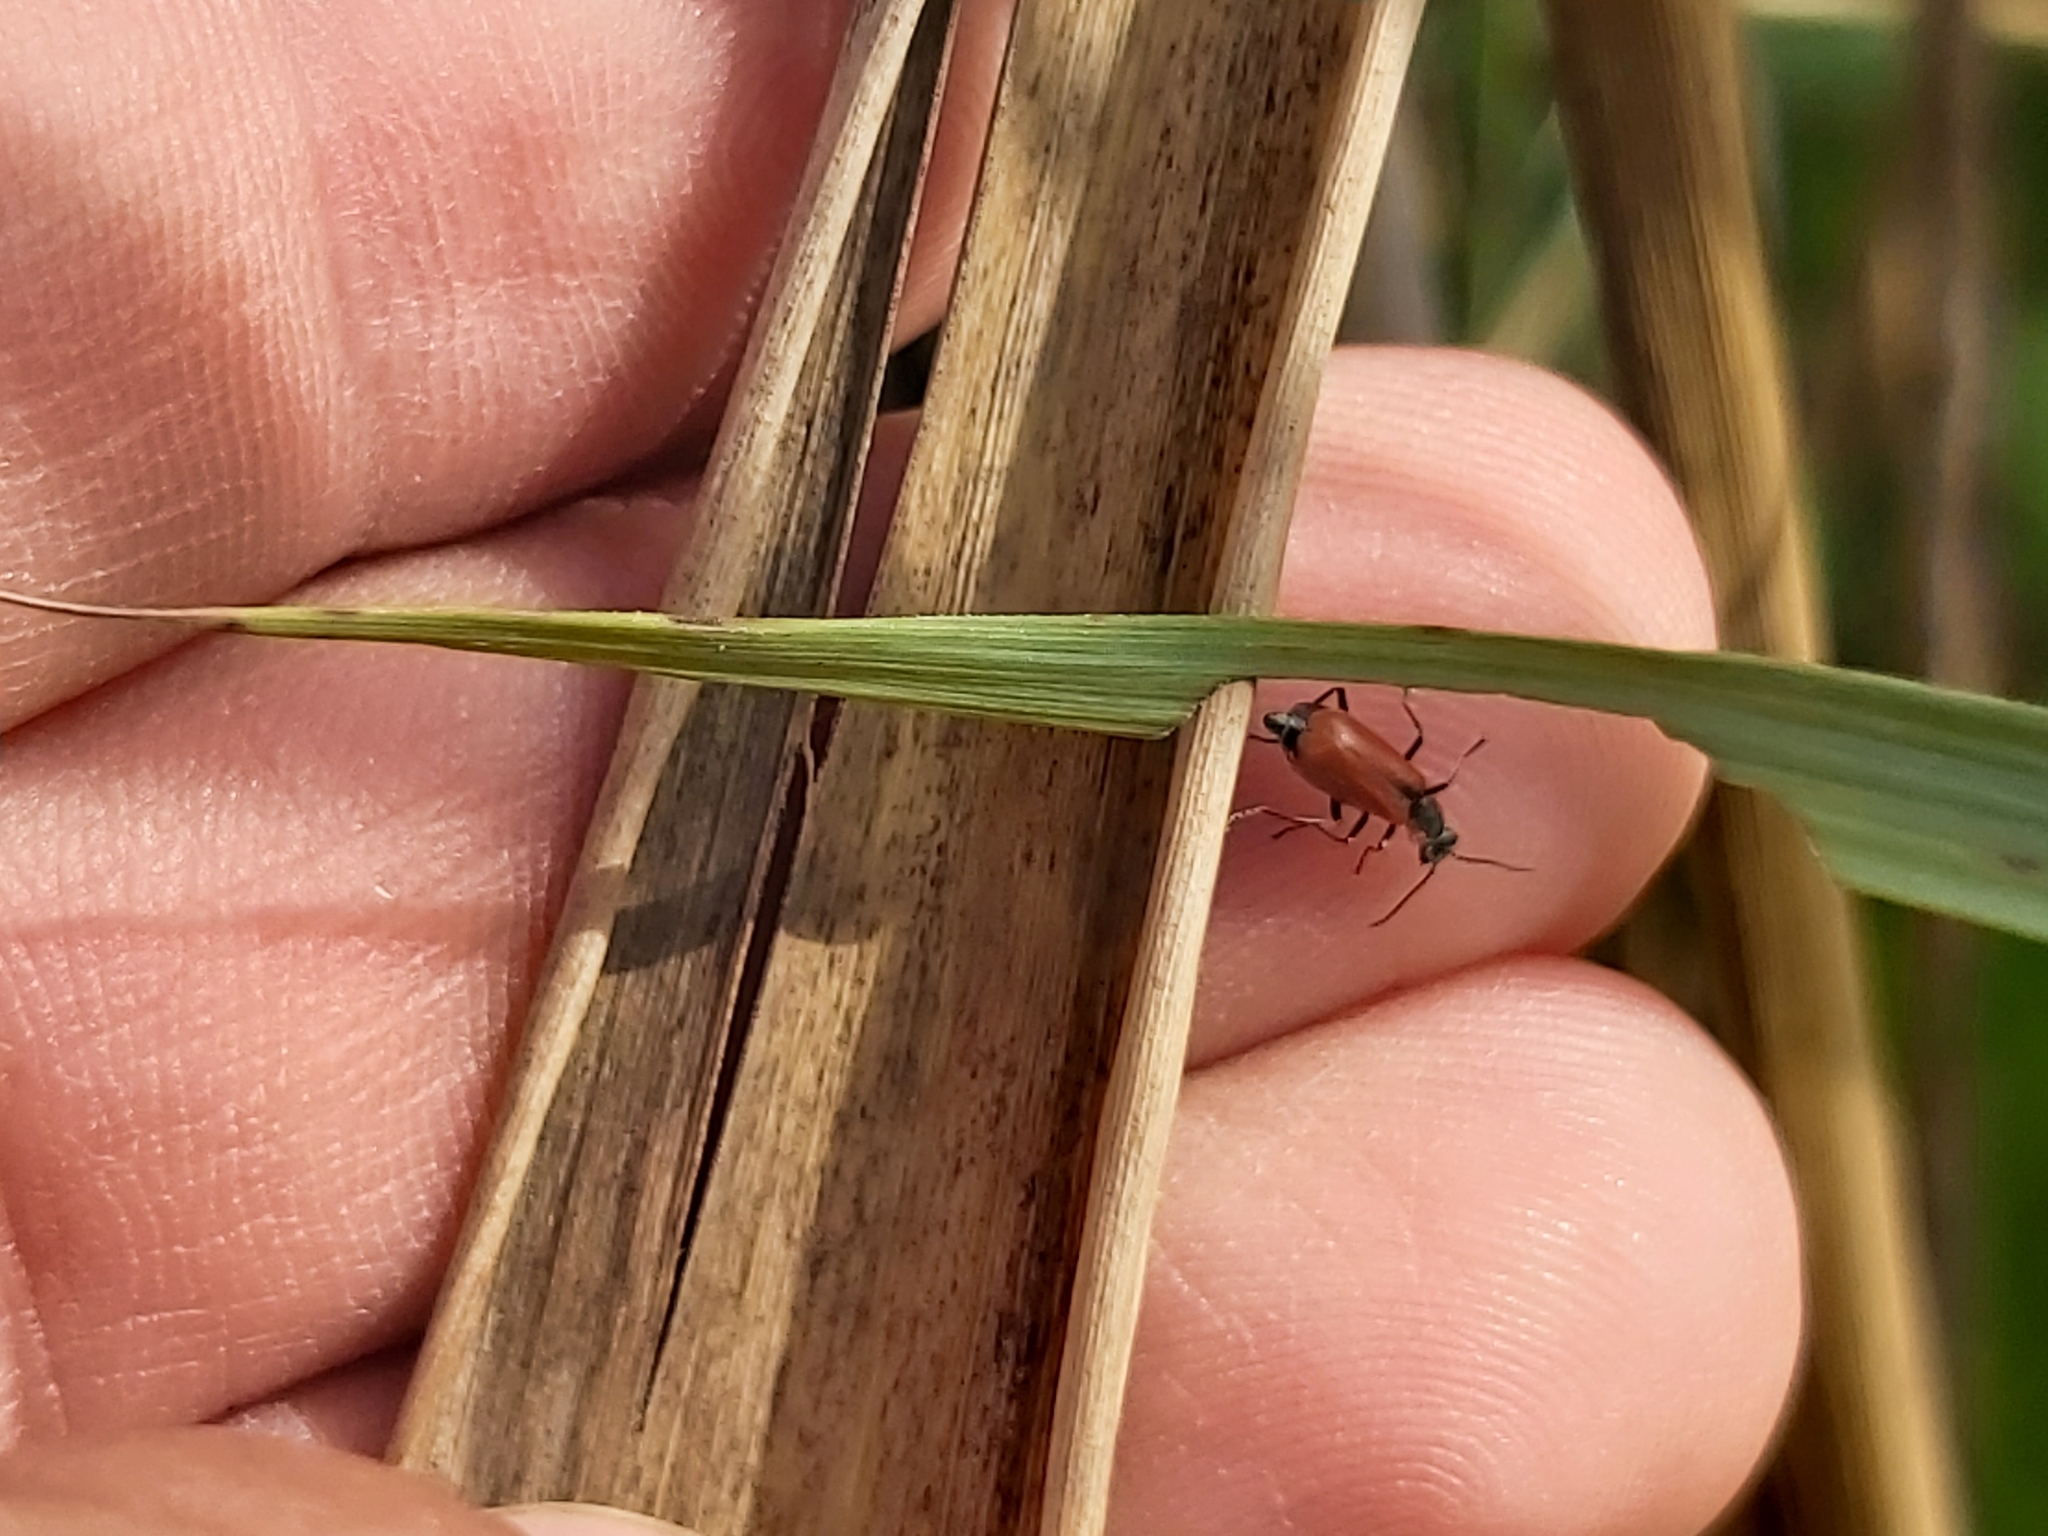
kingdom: Animalia
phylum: Arthropoda
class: Insecta
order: Coleoptera
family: Melyridae
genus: Anthocomus
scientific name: Anthocomus rufus
